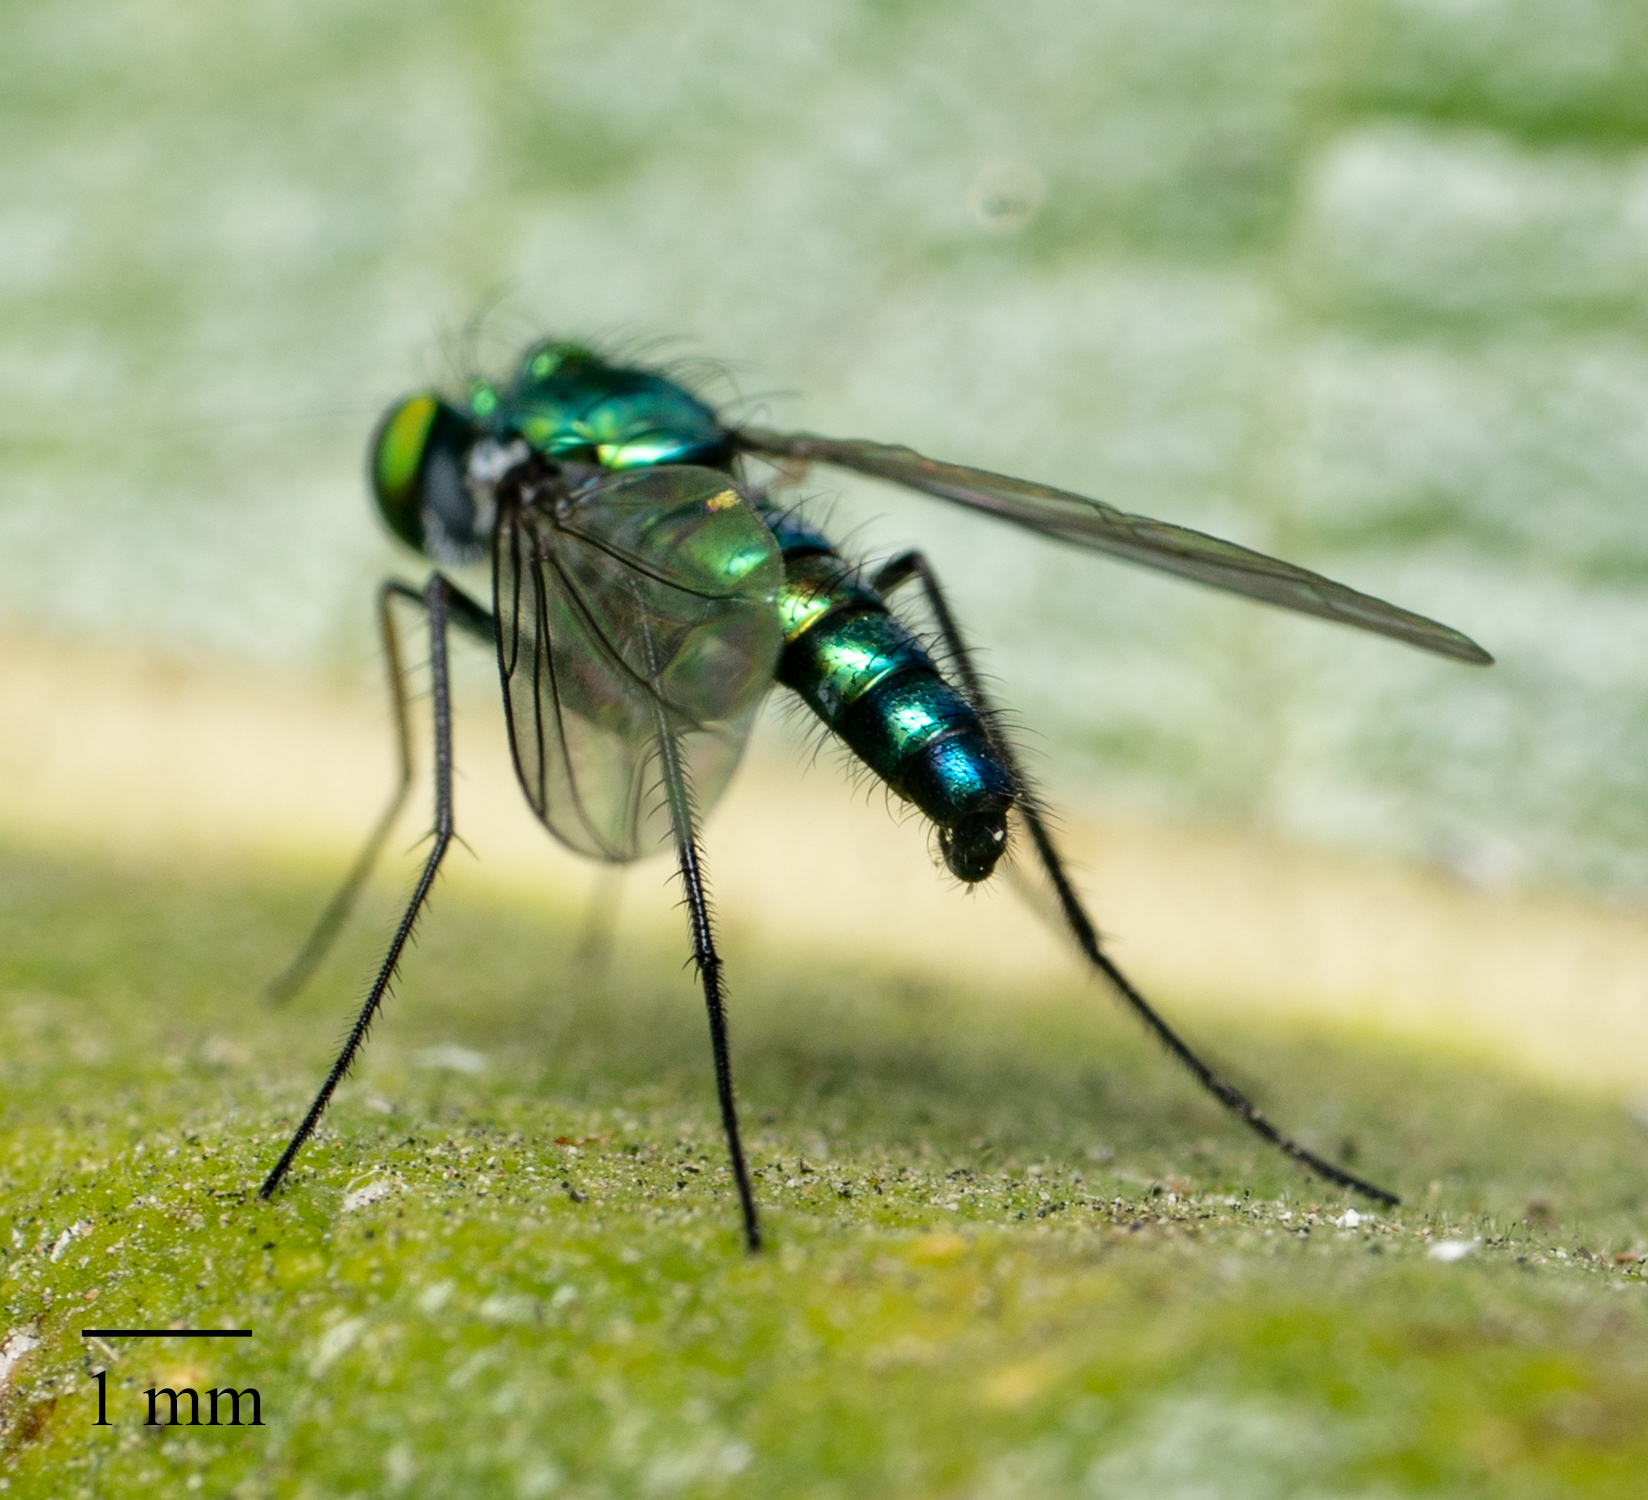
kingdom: Animalia
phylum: Arthropoda
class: Insecta
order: Diptera
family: Dolichopodidae
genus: Condylostylus
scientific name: Condylostylus longicornis
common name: Long-legged fly
